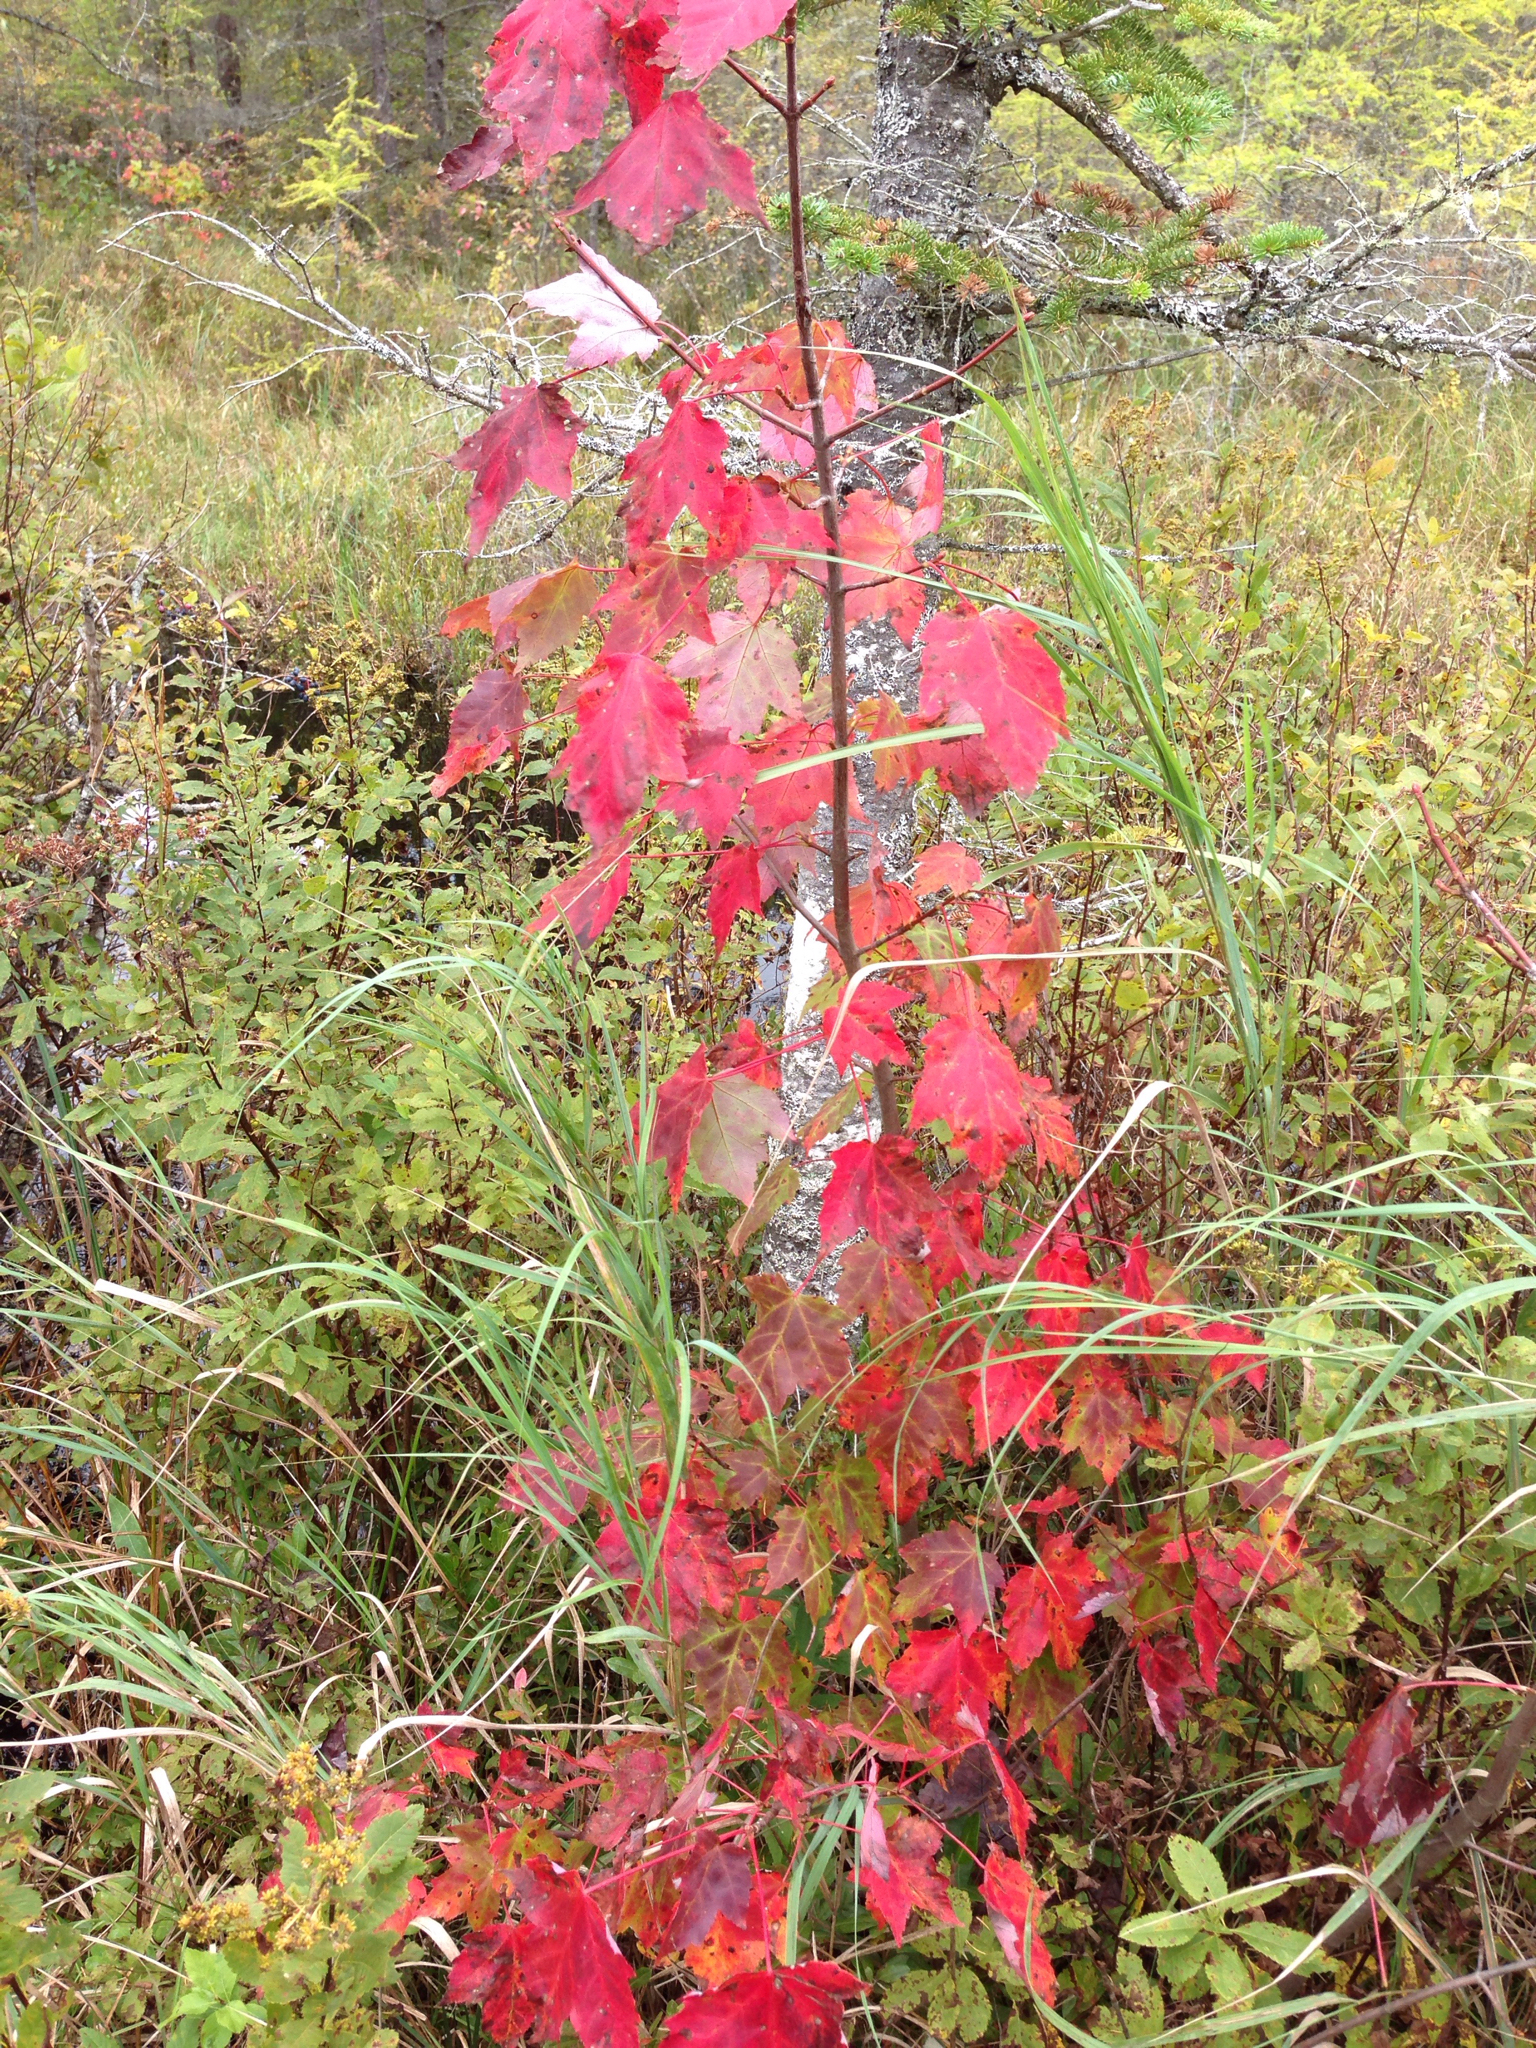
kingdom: Plantae
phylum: Tracheophyta
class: Magnoliopsida
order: Sapindales
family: Sapindaceae
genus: Acer
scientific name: Acer rubrum
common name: Red maple
